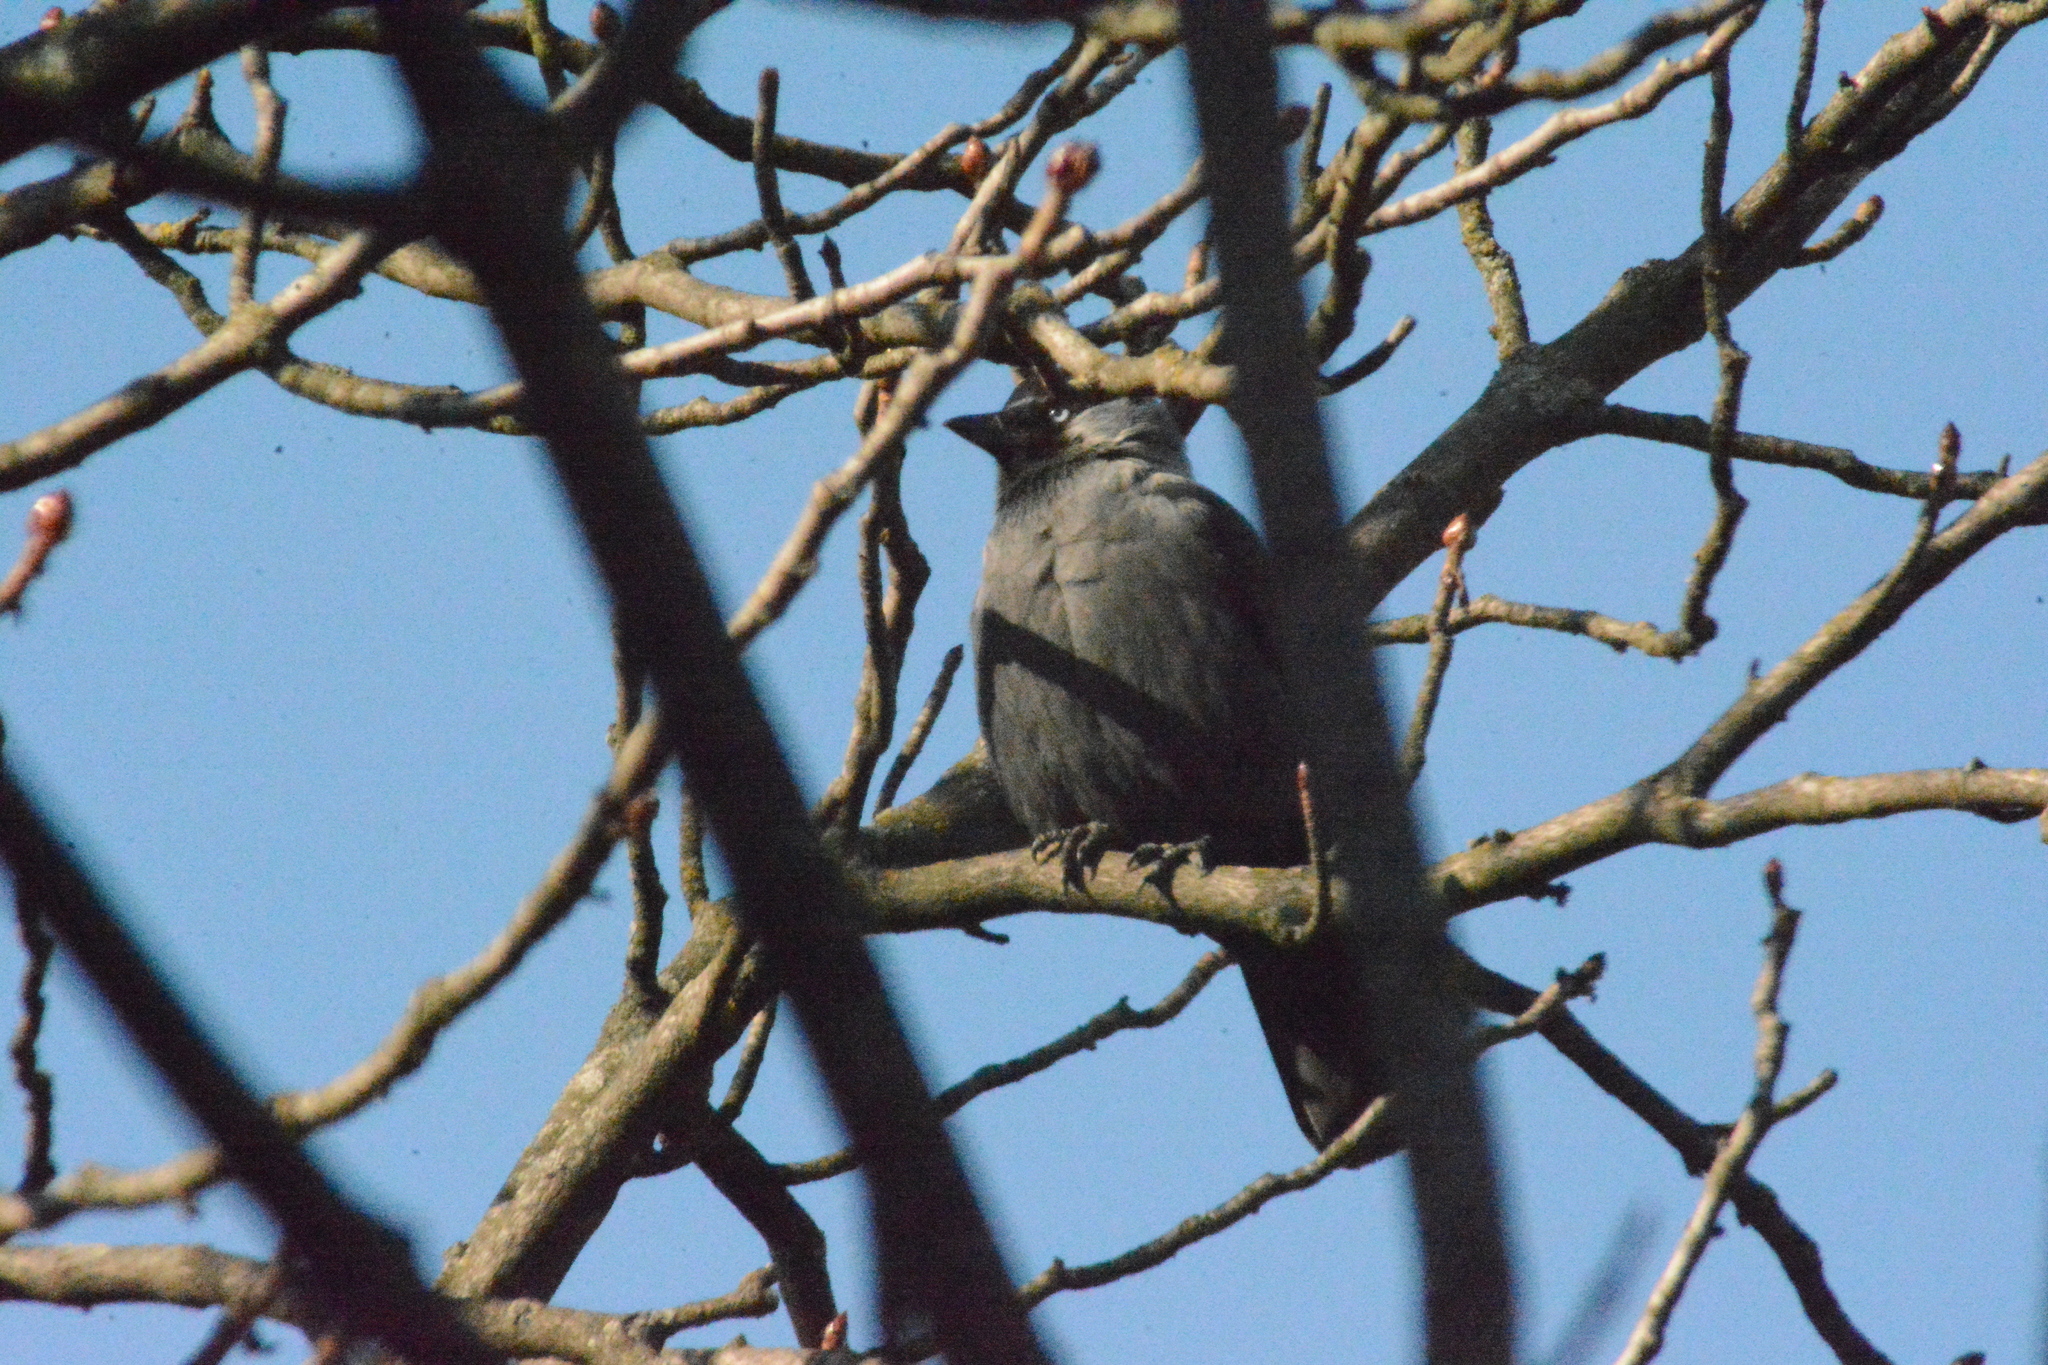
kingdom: Animalia
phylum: Chordata
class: Aves
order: Passeriformes
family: Corvidae
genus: Coloeus
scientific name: Coloeus monedula
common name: Western jackdaw
